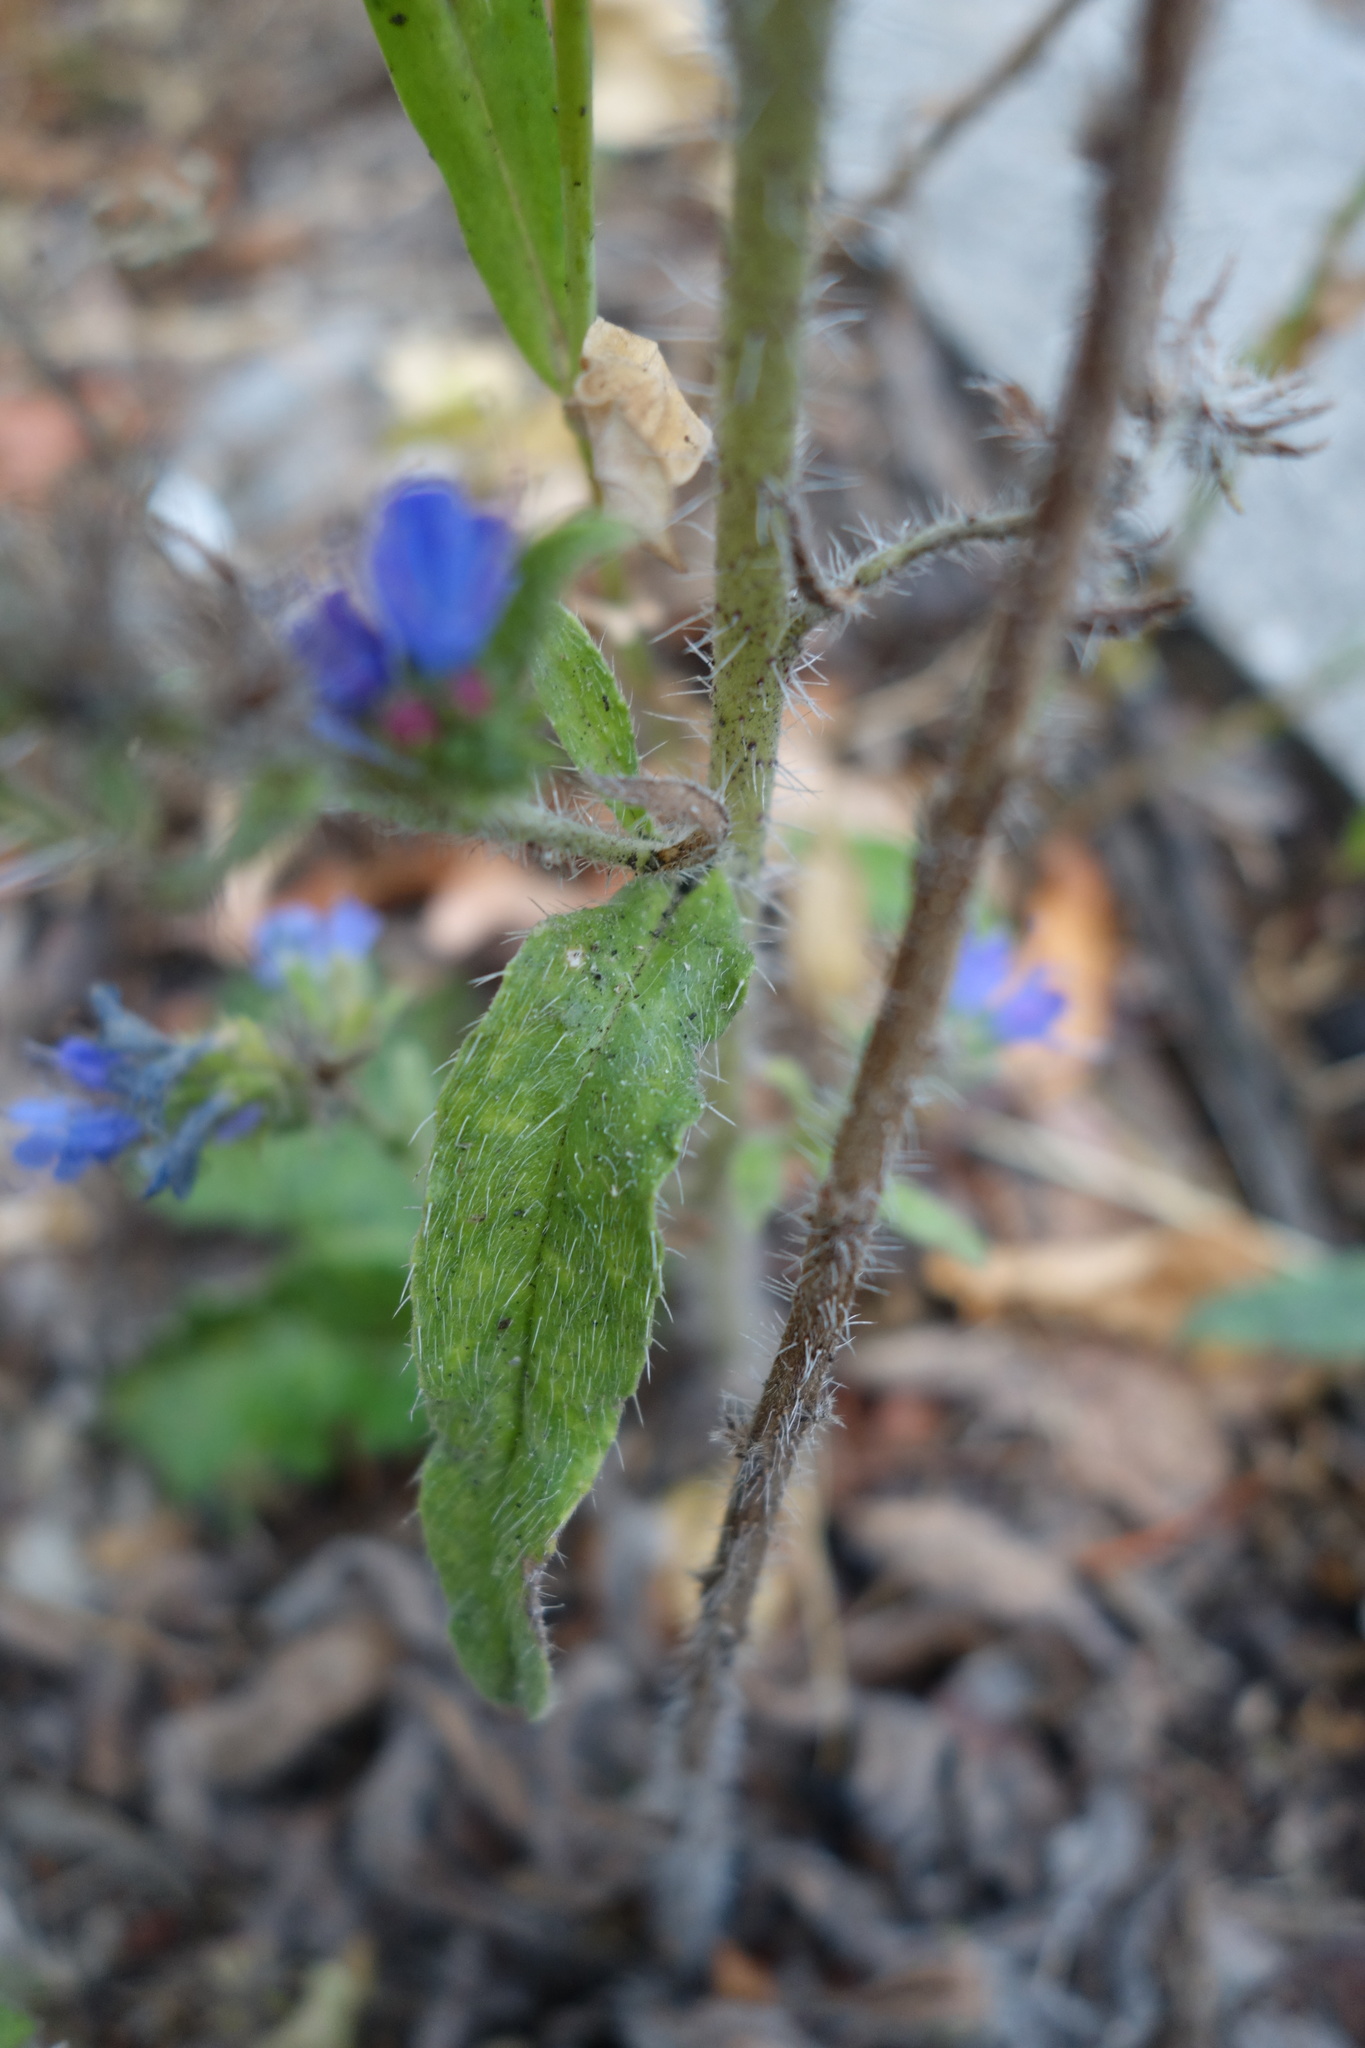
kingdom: Plantae
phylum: Tracheophyta
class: Magnoliopsida
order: Boraginales
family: Boraginaceae
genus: Echium
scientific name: Echium vulgare
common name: Common viper's bugloss
